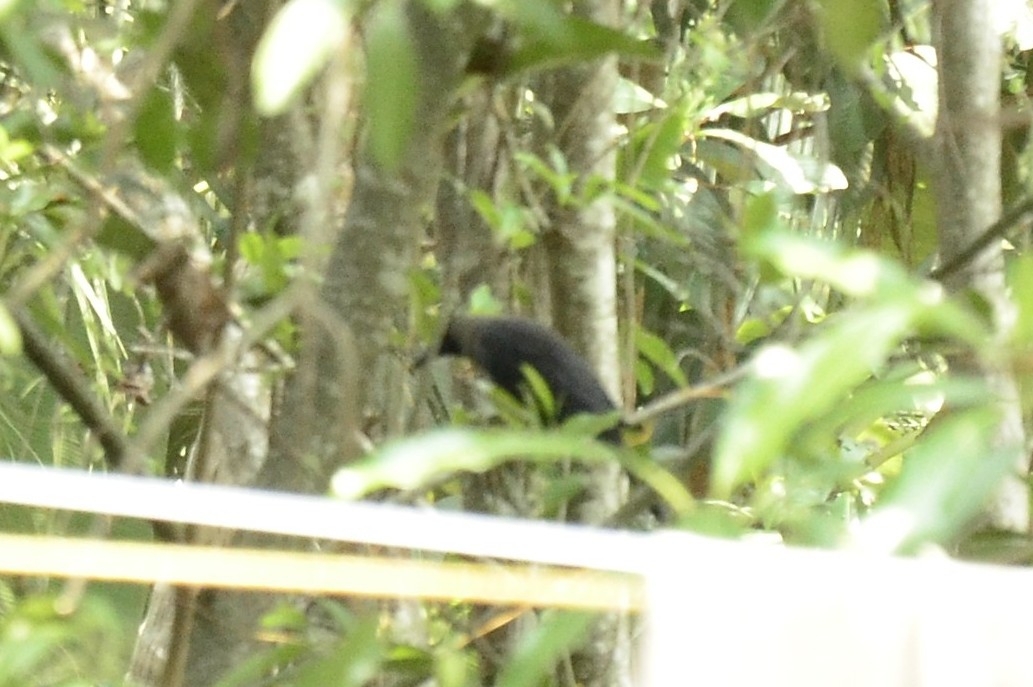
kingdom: Animalia
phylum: Chordata
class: Aves
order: Passeriformes
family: Corvidae
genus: Corvus
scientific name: Corvus splendens
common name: House crow
